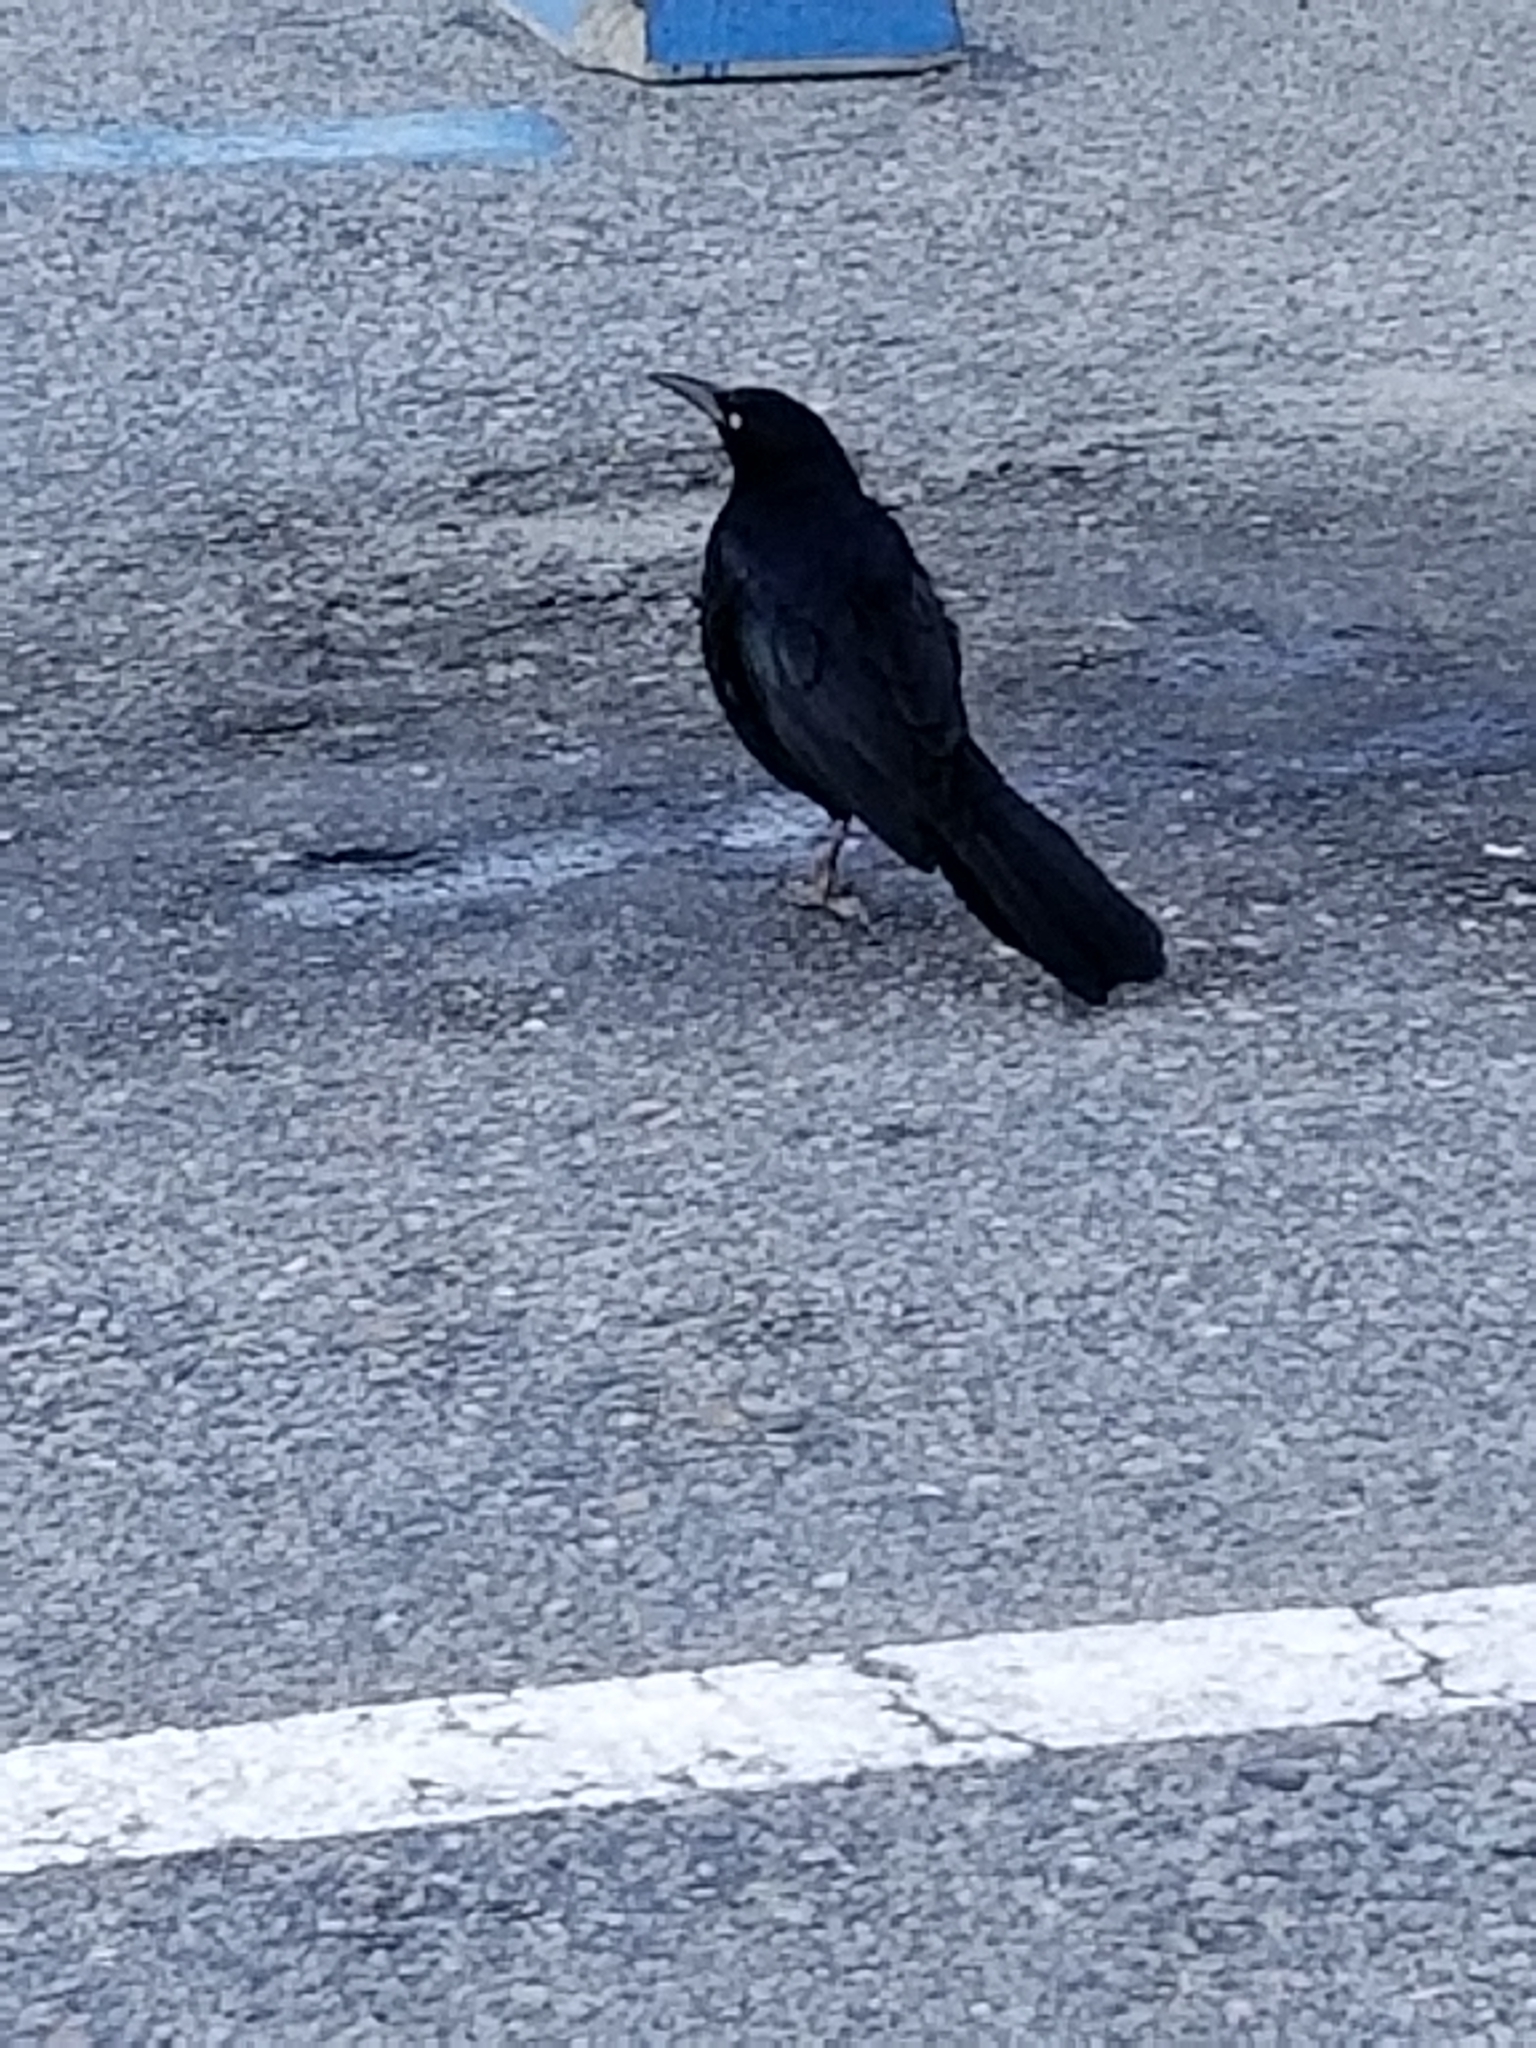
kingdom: Animalia
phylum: Chordata
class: Aves
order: Passeriformes
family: Icteridae
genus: Quiscalus
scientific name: Quiscalus mexicanus
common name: Great-tailed grackle
